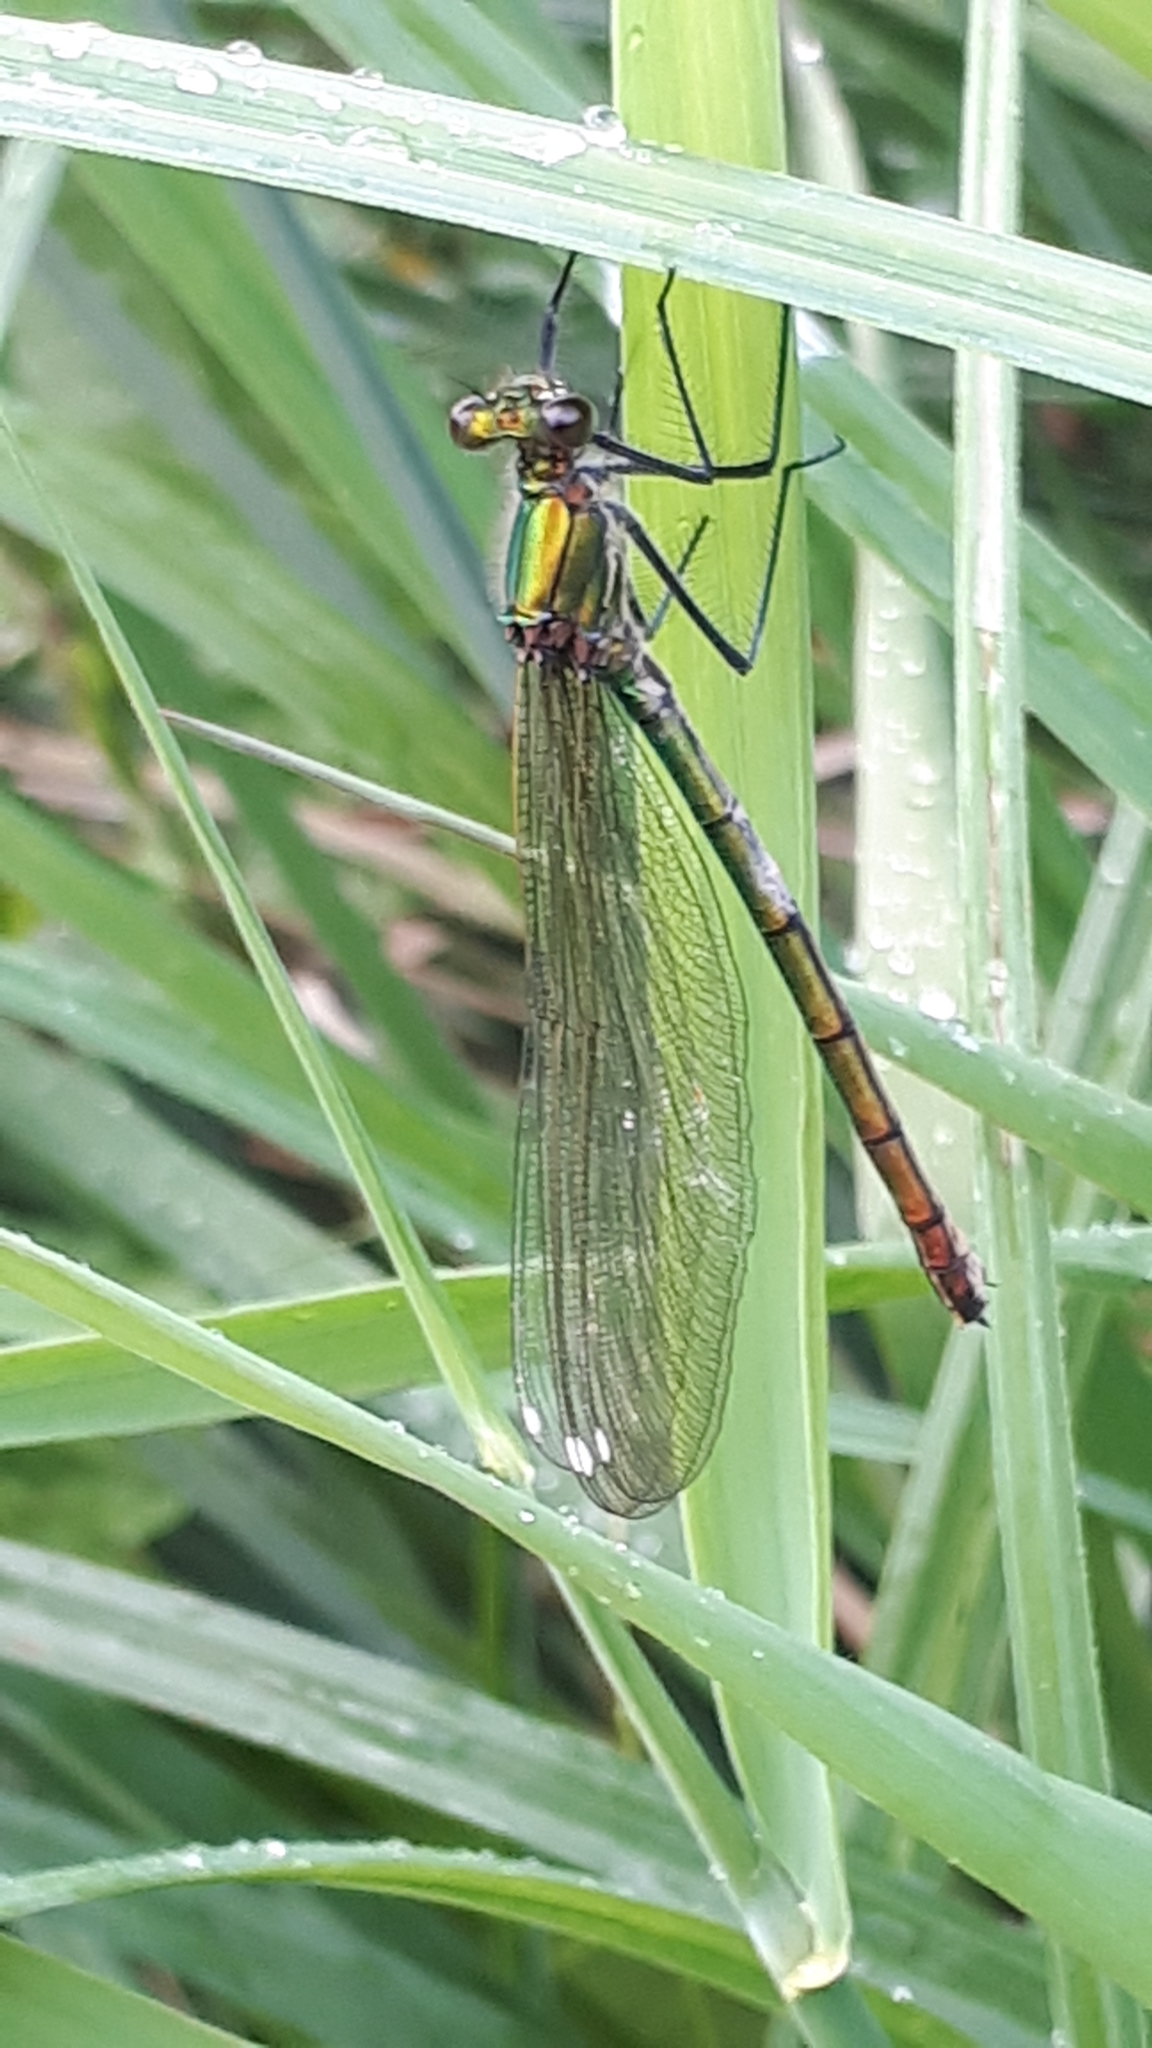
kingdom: Animalia
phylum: Arthropoda
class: Insecta
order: Odonata
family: Calopterygidae
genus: Calopteryx
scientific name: Calopteryx splendens
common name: Banded demoiselle
